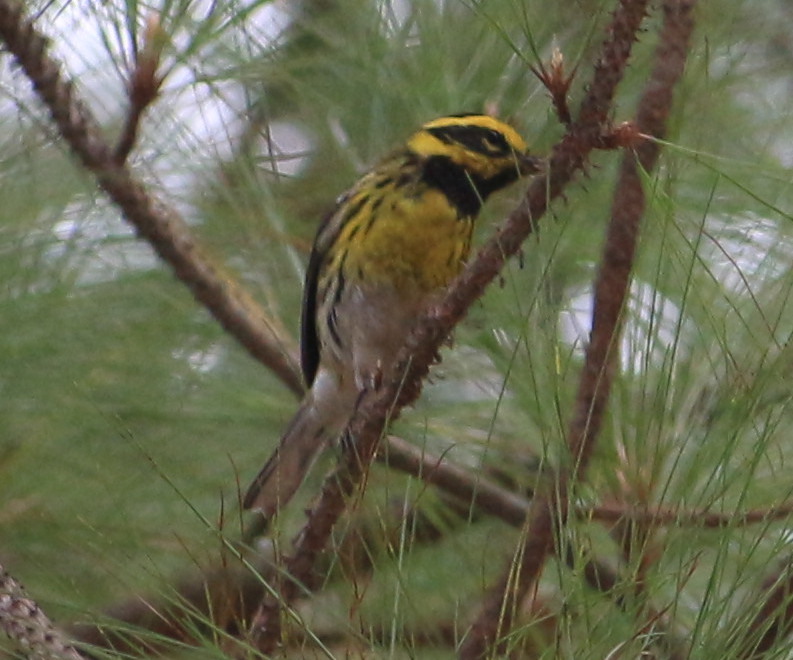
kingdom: Animalia
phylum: Chordata
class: Aves
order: Passeriformes
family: Parulidae
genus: Setophaga
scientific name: Setophaga townsendi
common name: Townsend's warbler
